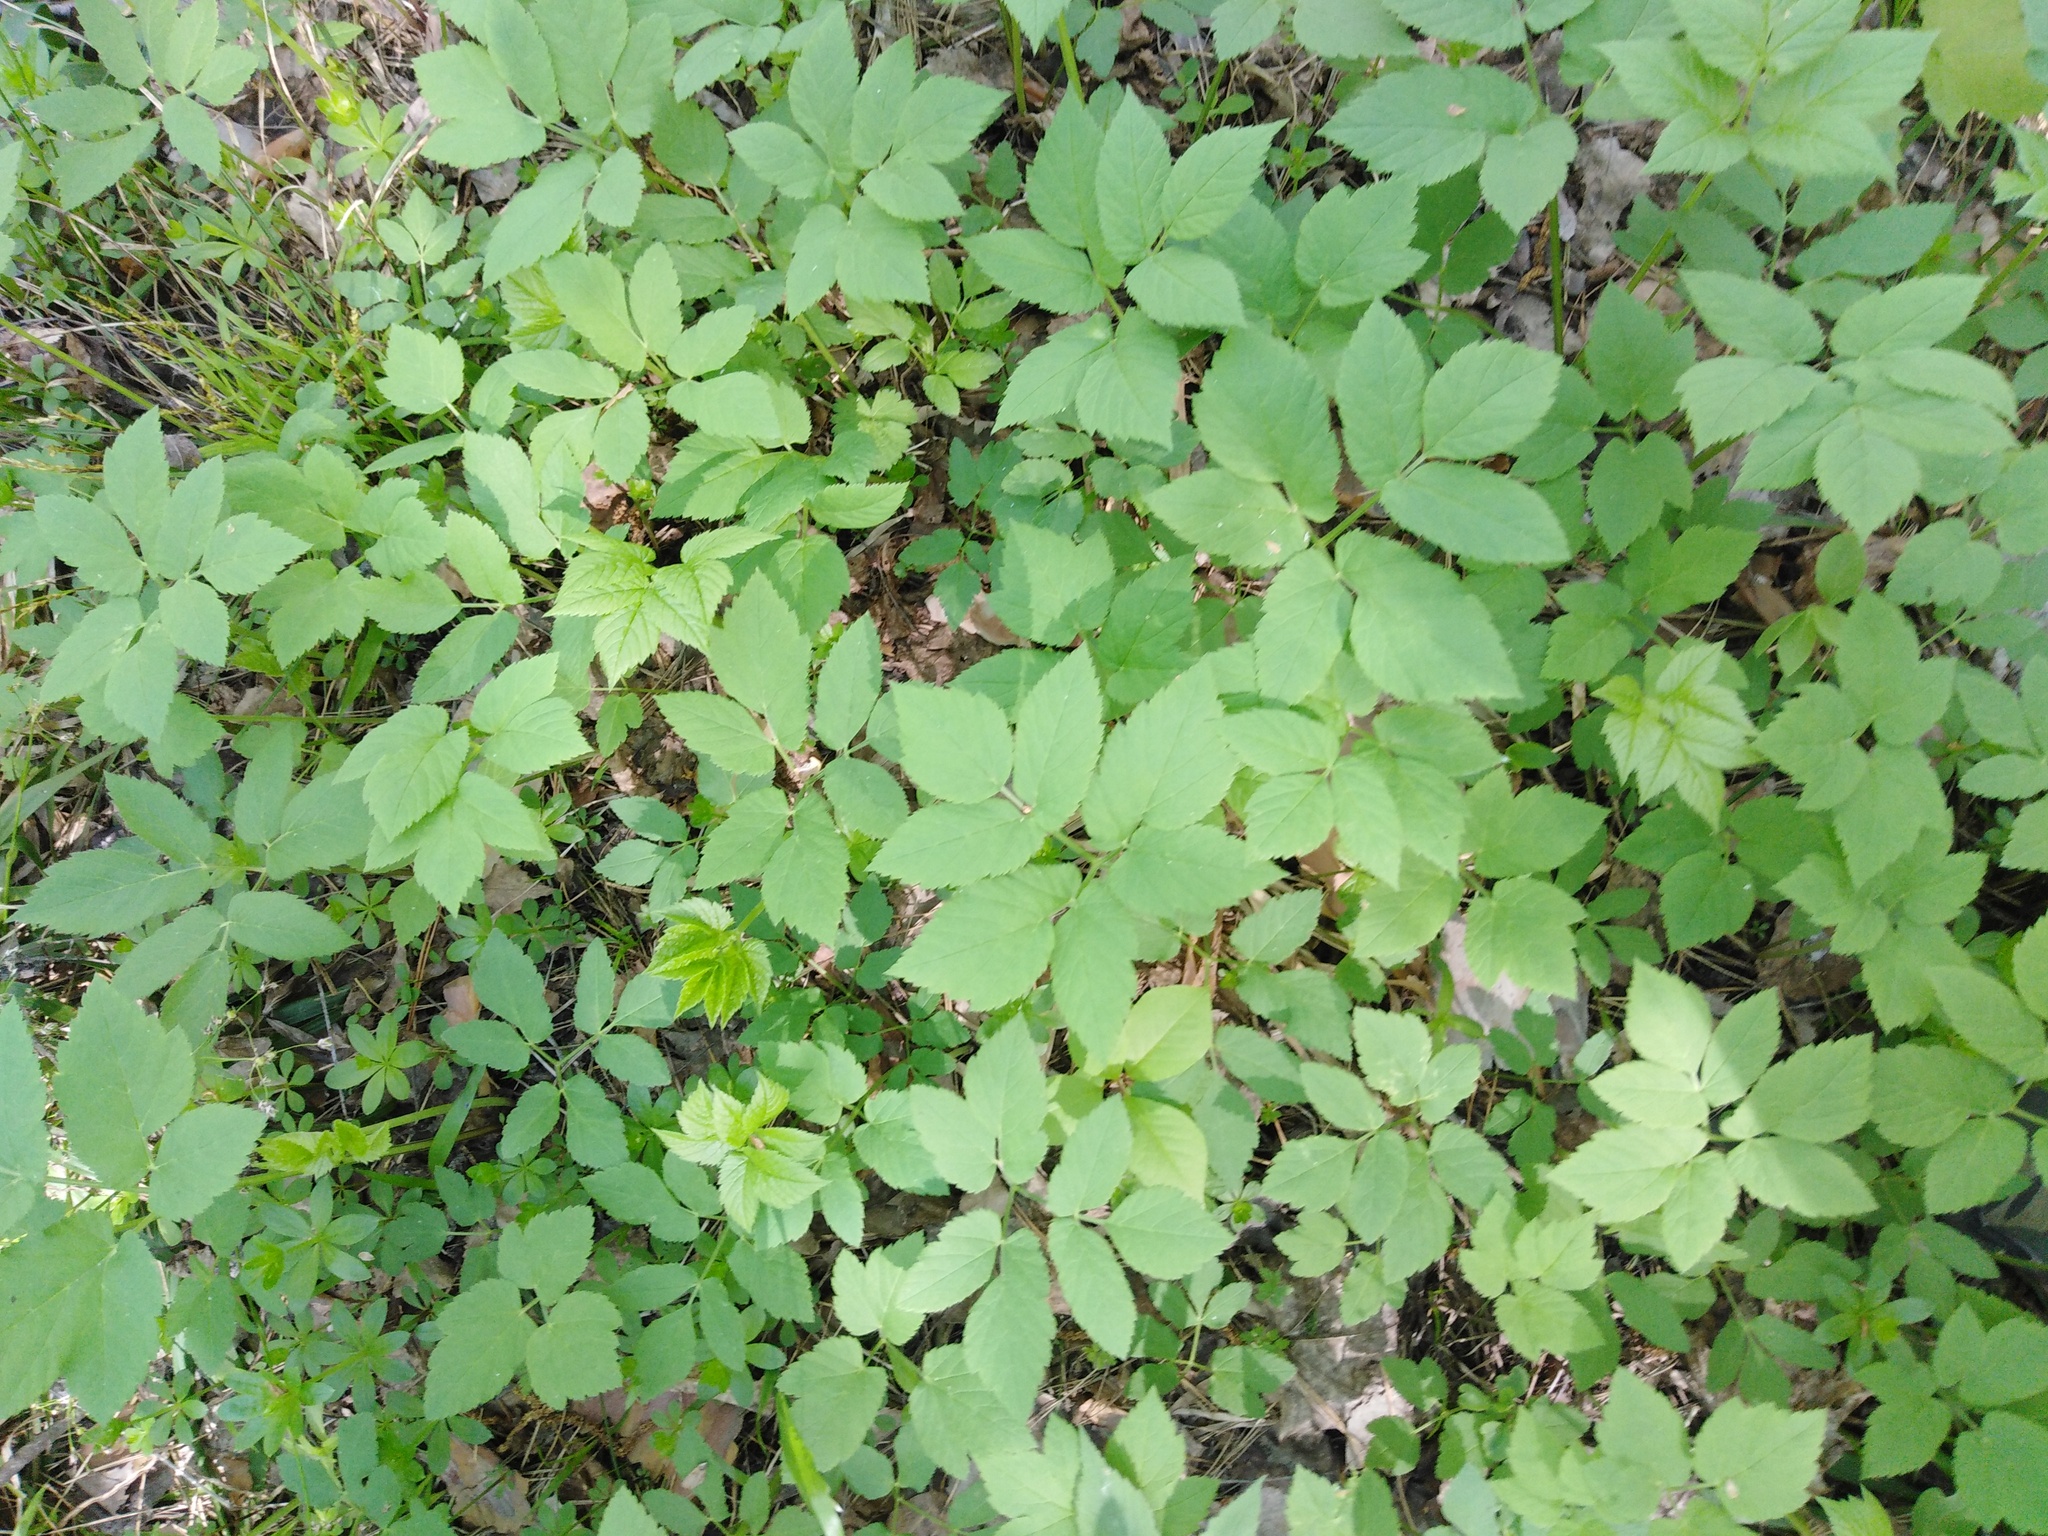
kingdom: Plantae
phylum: Tracheophyta
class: Magnoliopsida
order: Apiales
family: Apiaceae
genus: Aegopodium
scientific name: Aegopodium podagraria
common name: Ground-elder
